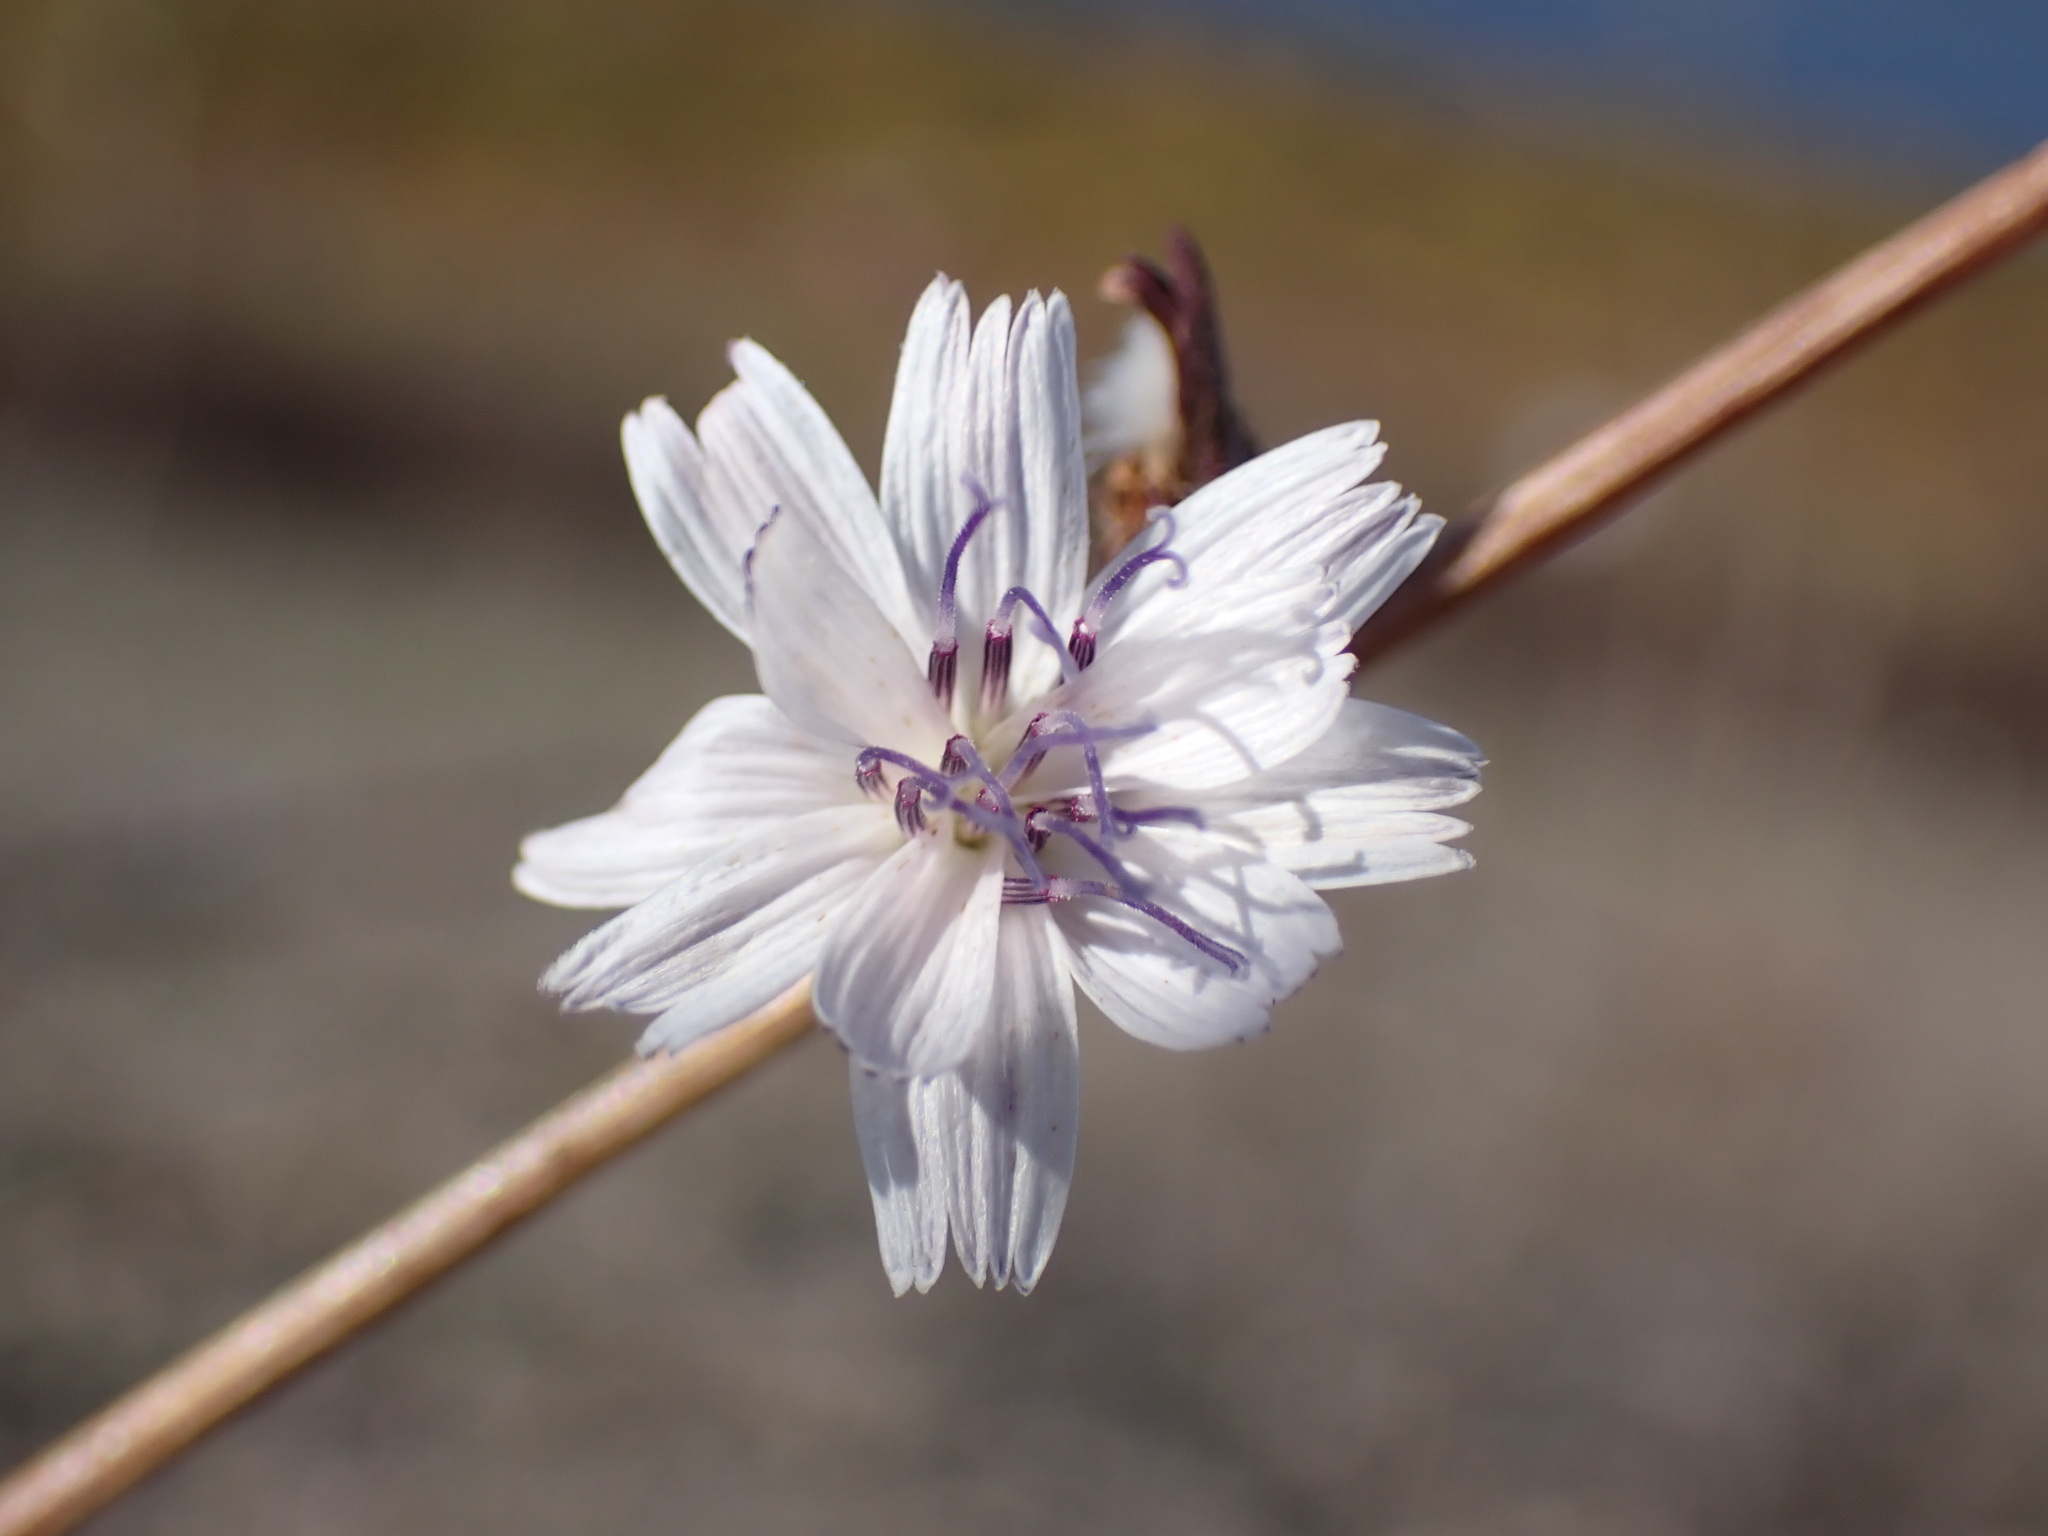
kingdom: Plantae
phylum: Tracheophyta
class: Magnoliopsida
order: Asterales
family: Asteraceae
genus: Stephanomeria
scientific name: Stephanomeria diegensis
